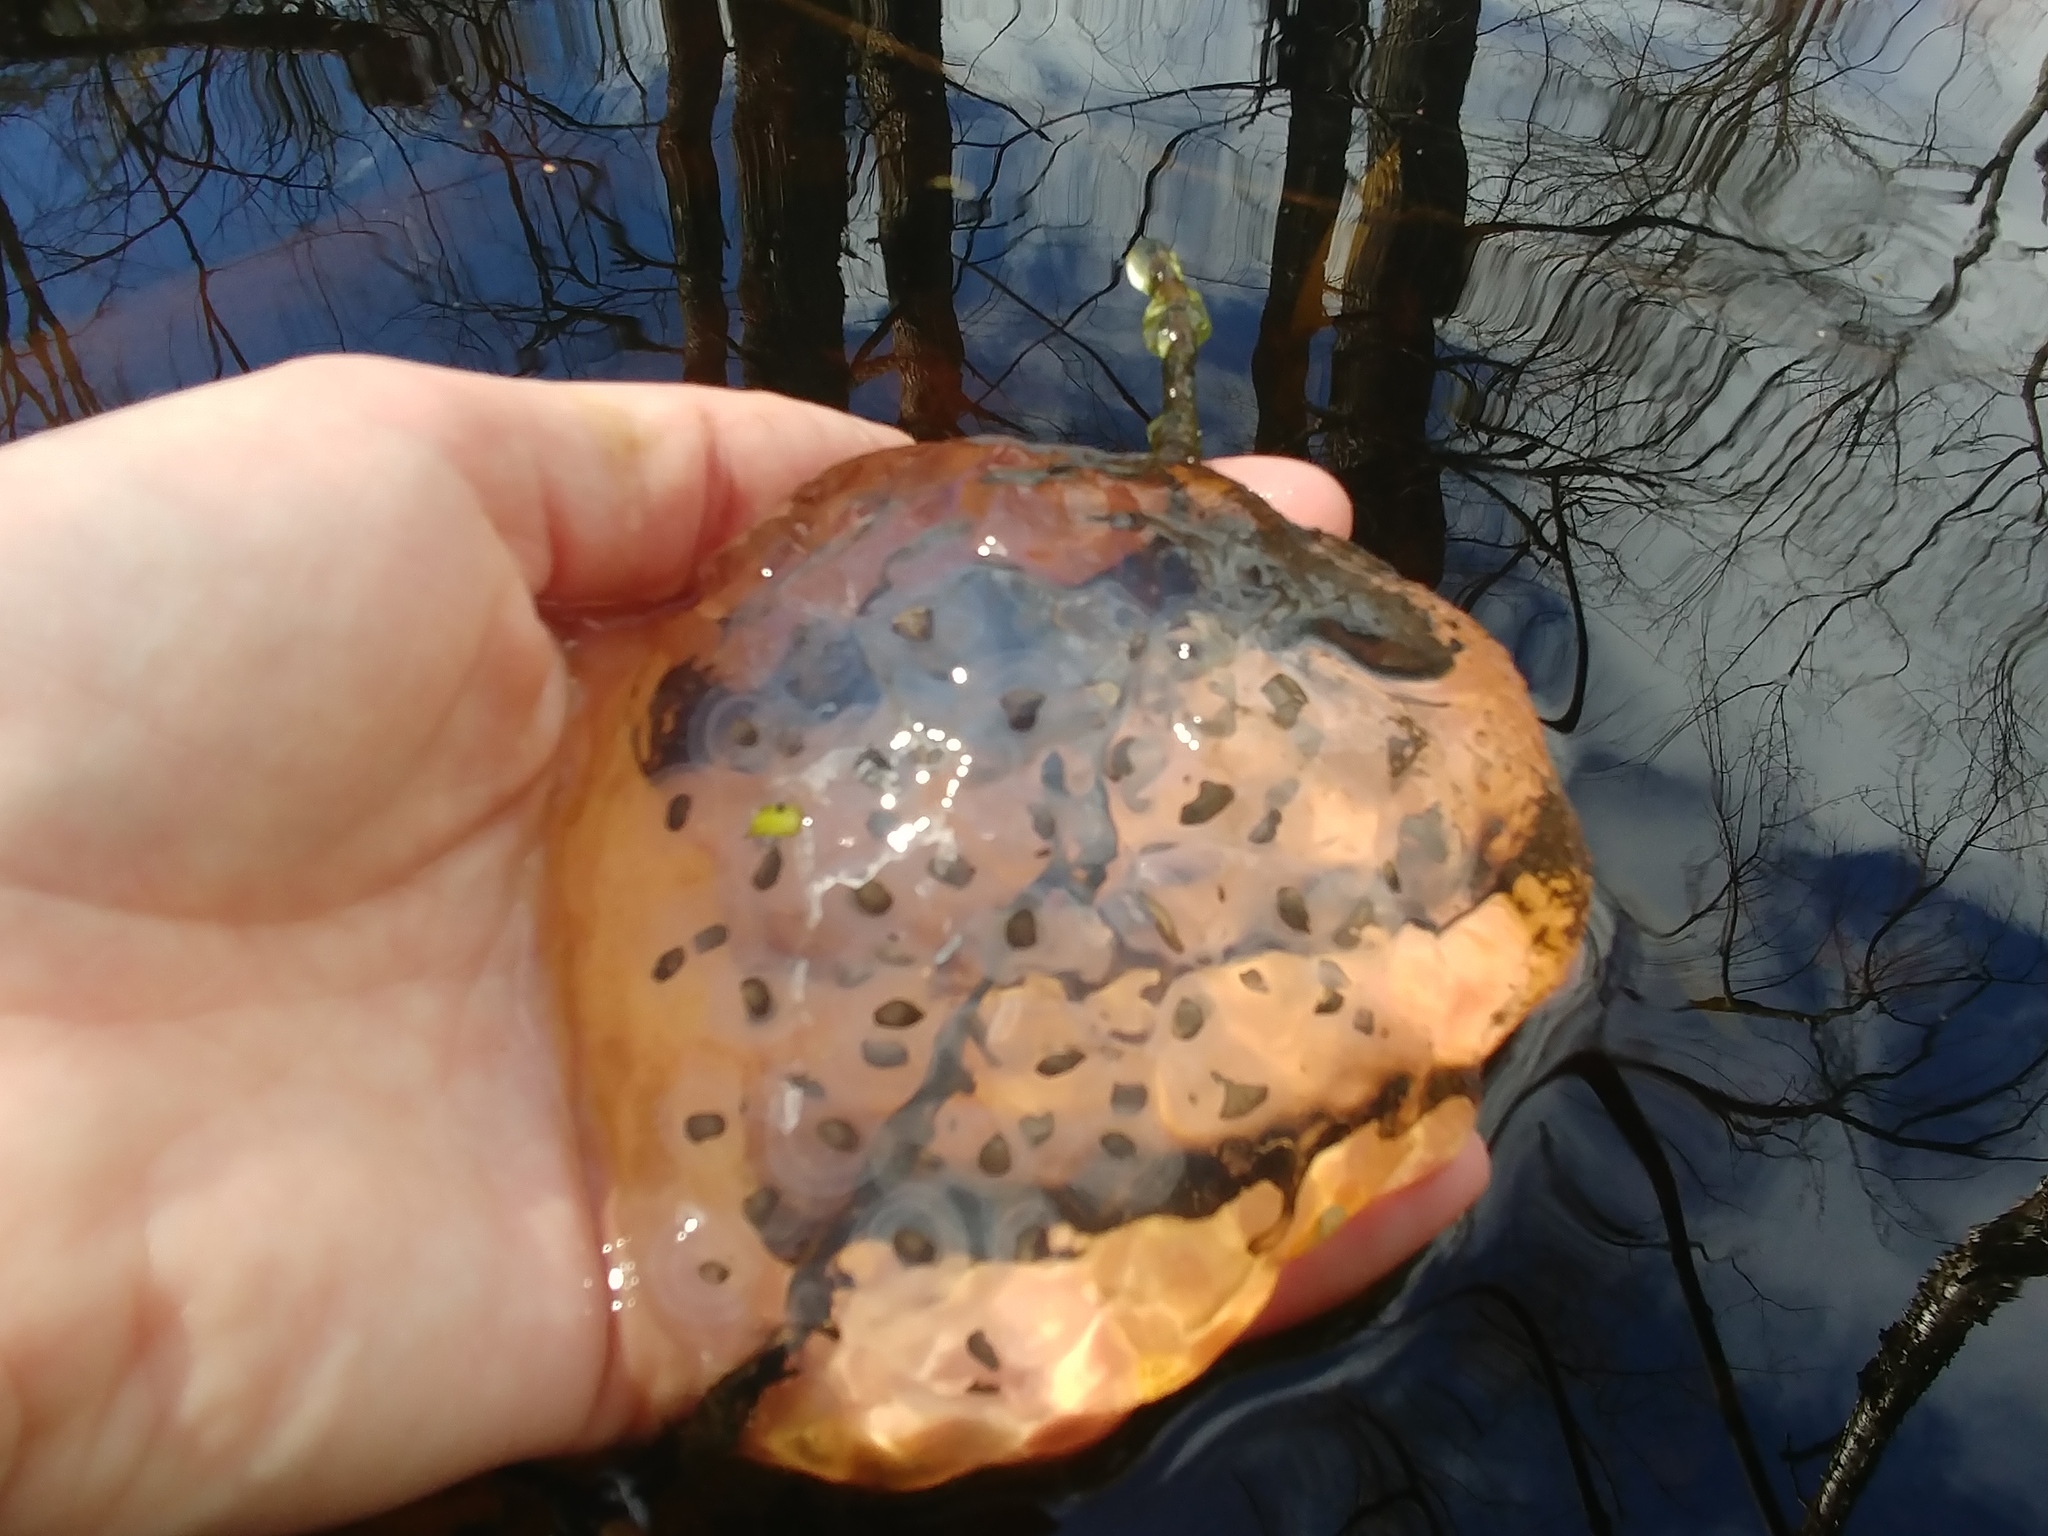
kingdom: Animalia
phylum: Chordata
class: Amphibia
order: Caudata
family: Ambystomatidae
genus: Ambystoma
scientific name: Ambystoma maculatum
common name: Spotted salamander
